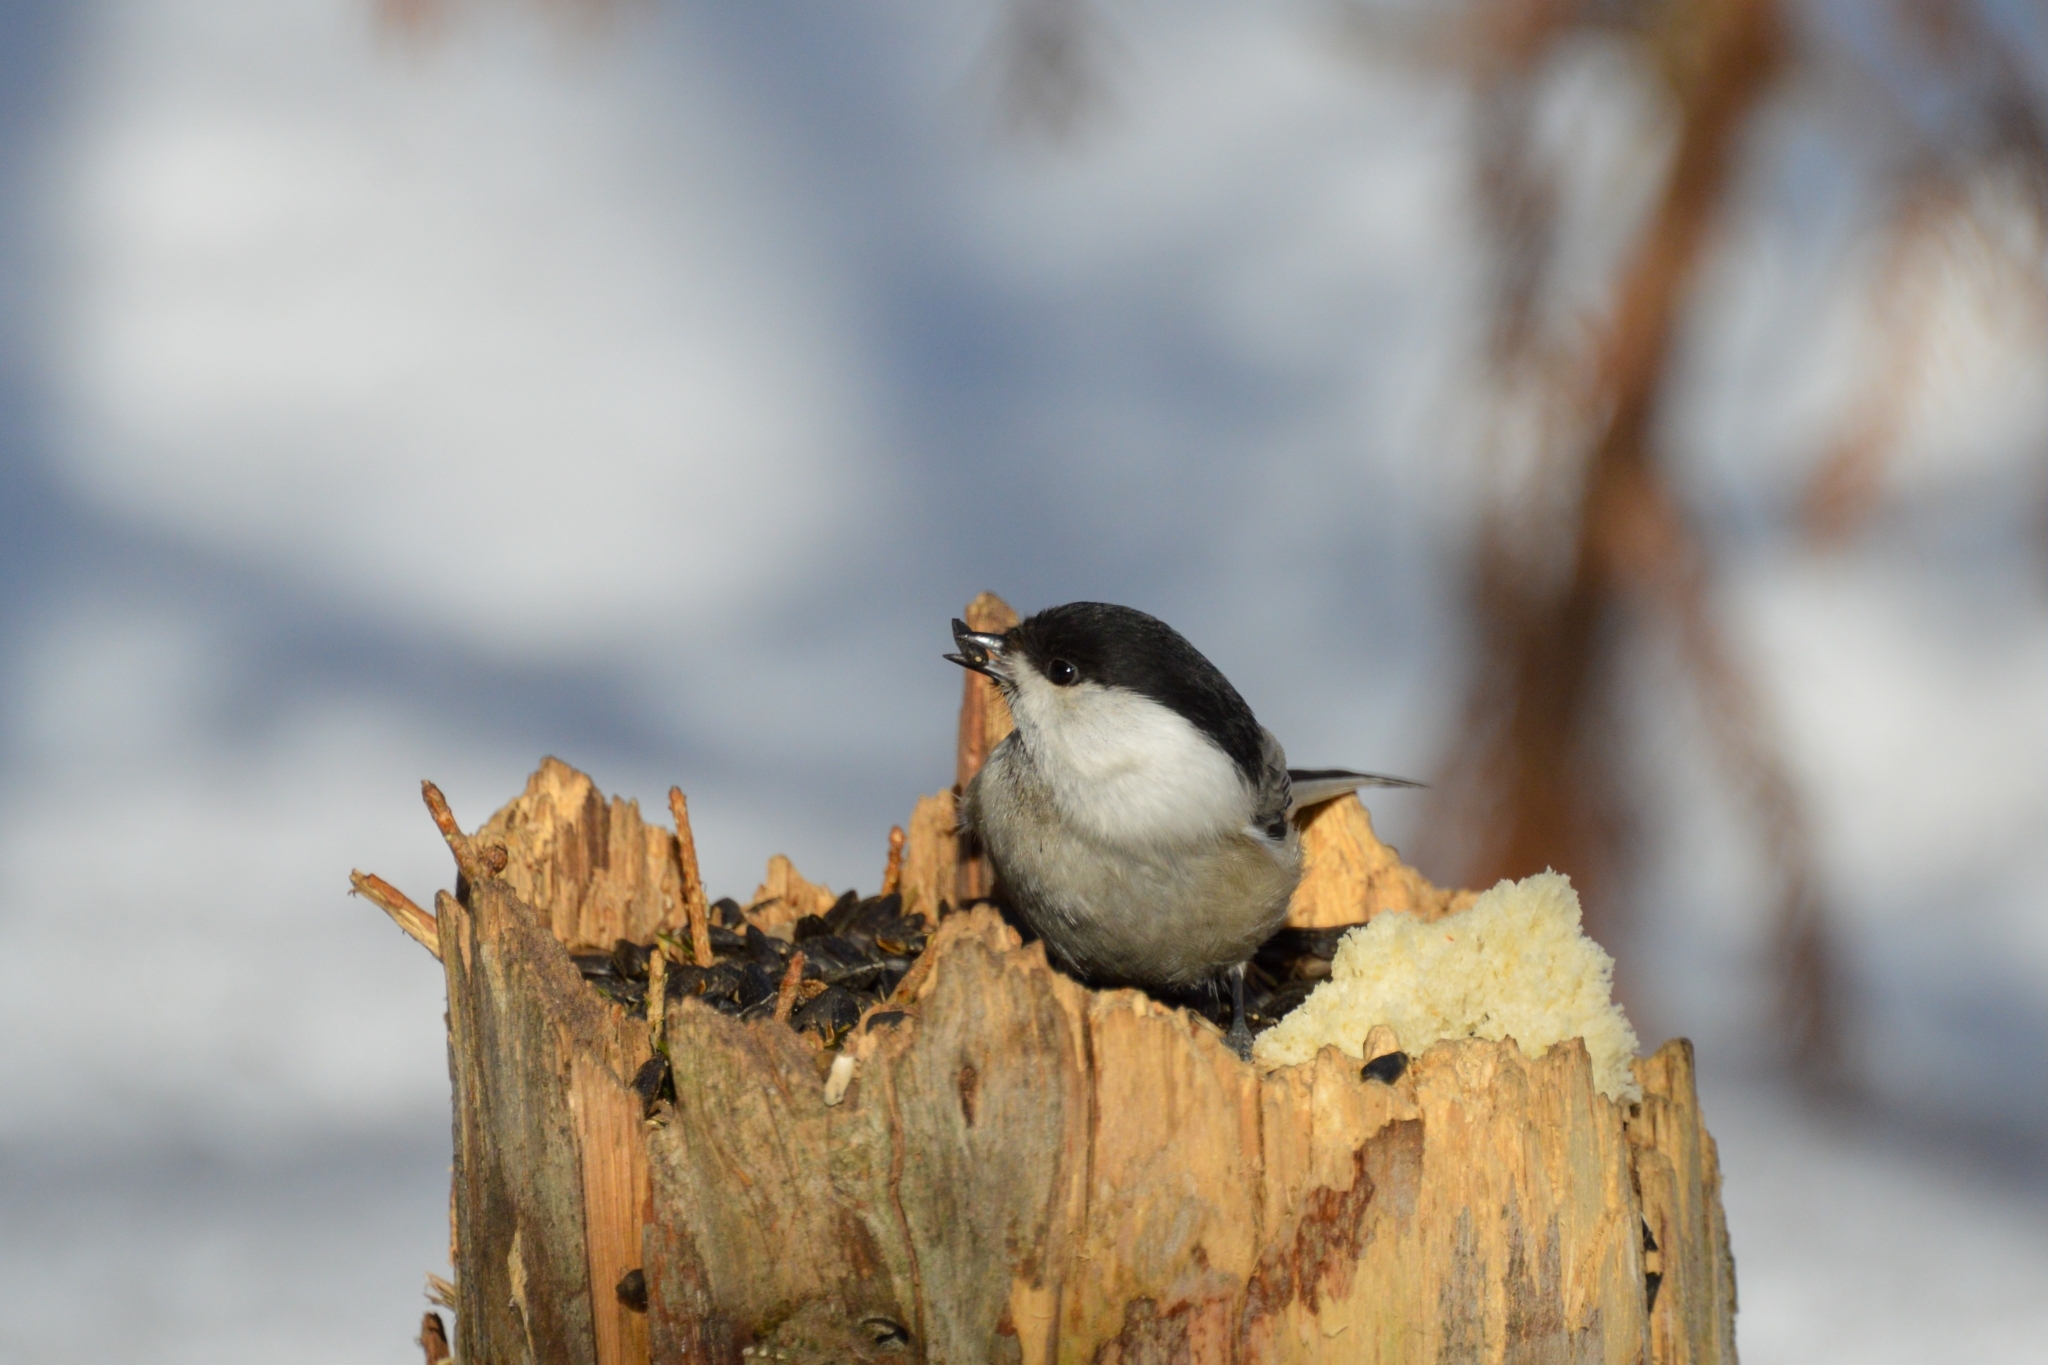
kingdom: Animalia
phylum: Chordata
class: Aves
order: Passeriformes
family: Paridae
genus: Poecile
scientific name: Poecile montanus
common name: Willow tit
